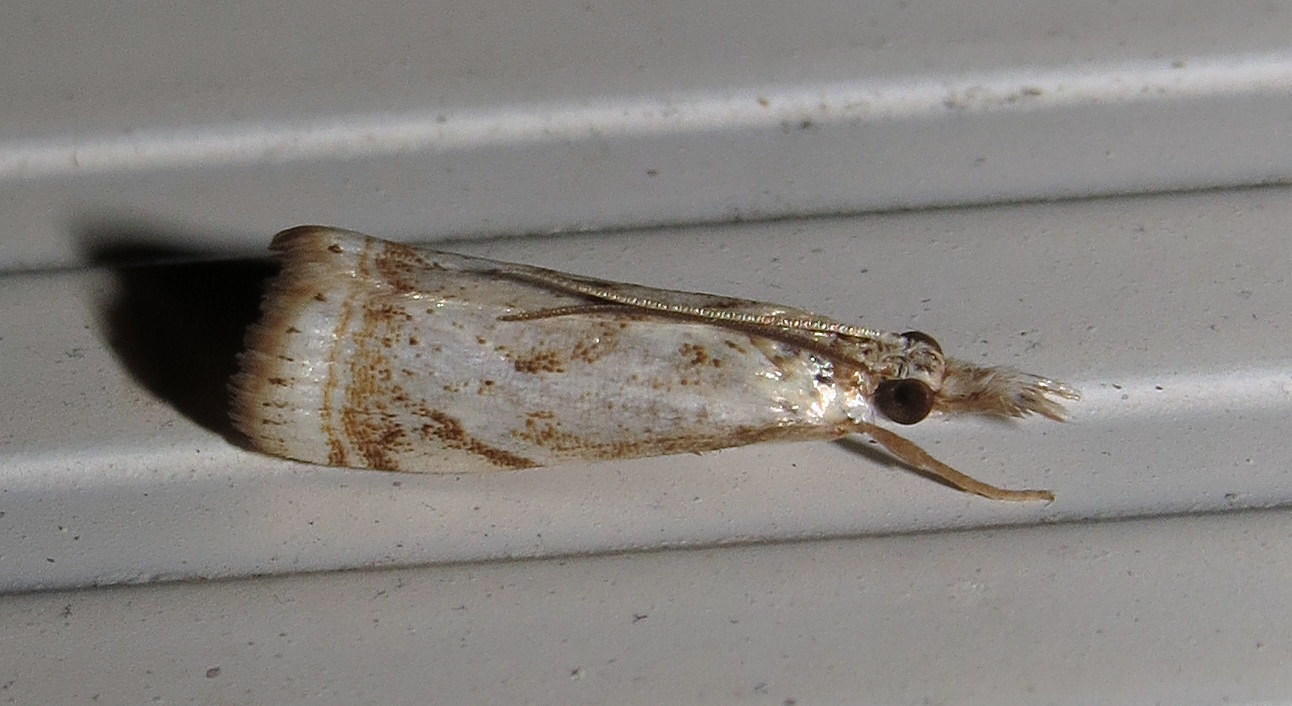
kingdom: Animalia
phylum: Arthropoda
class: Insecta
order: Lepidoptera
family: Crambidae
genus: Microcrambus
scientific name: Microcrambus elegans
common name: Elegant grass-veneer
